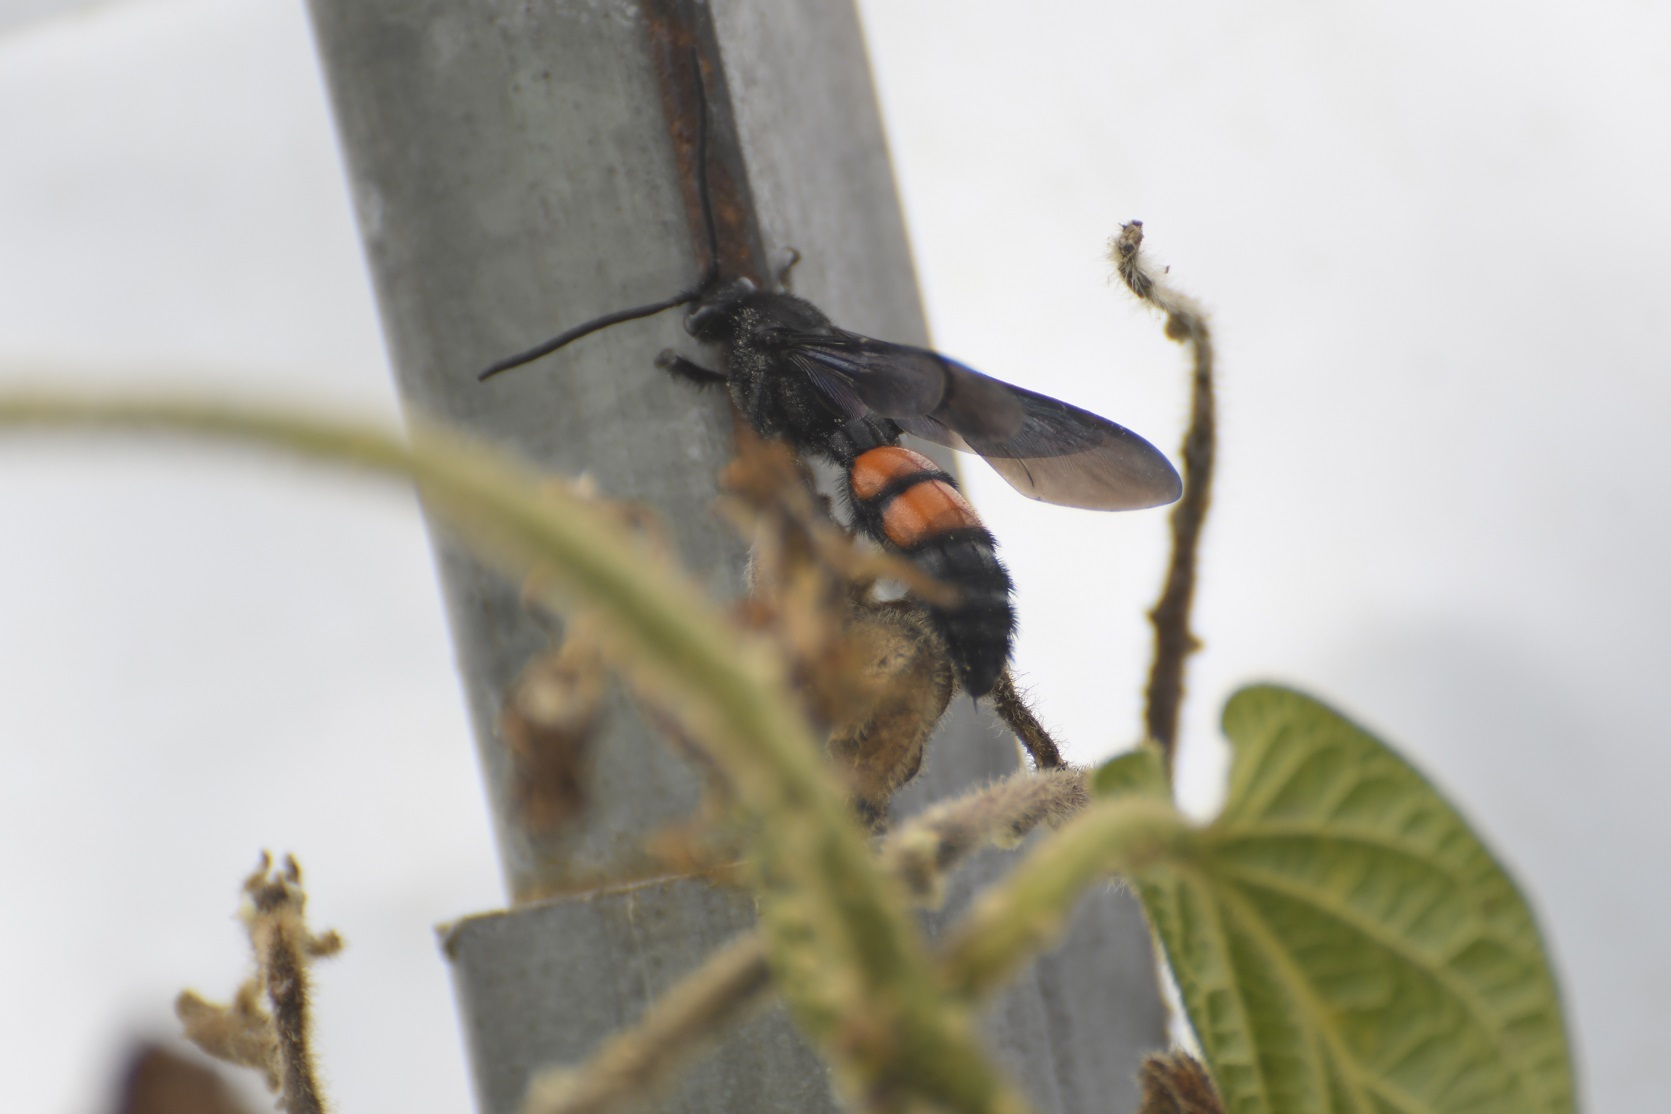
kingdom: Animalia
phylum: Arthropoda
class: Insecta
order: Hymenoptera
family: Scoliidae
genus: Pygodasis
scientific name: Pygodasis ephippium
